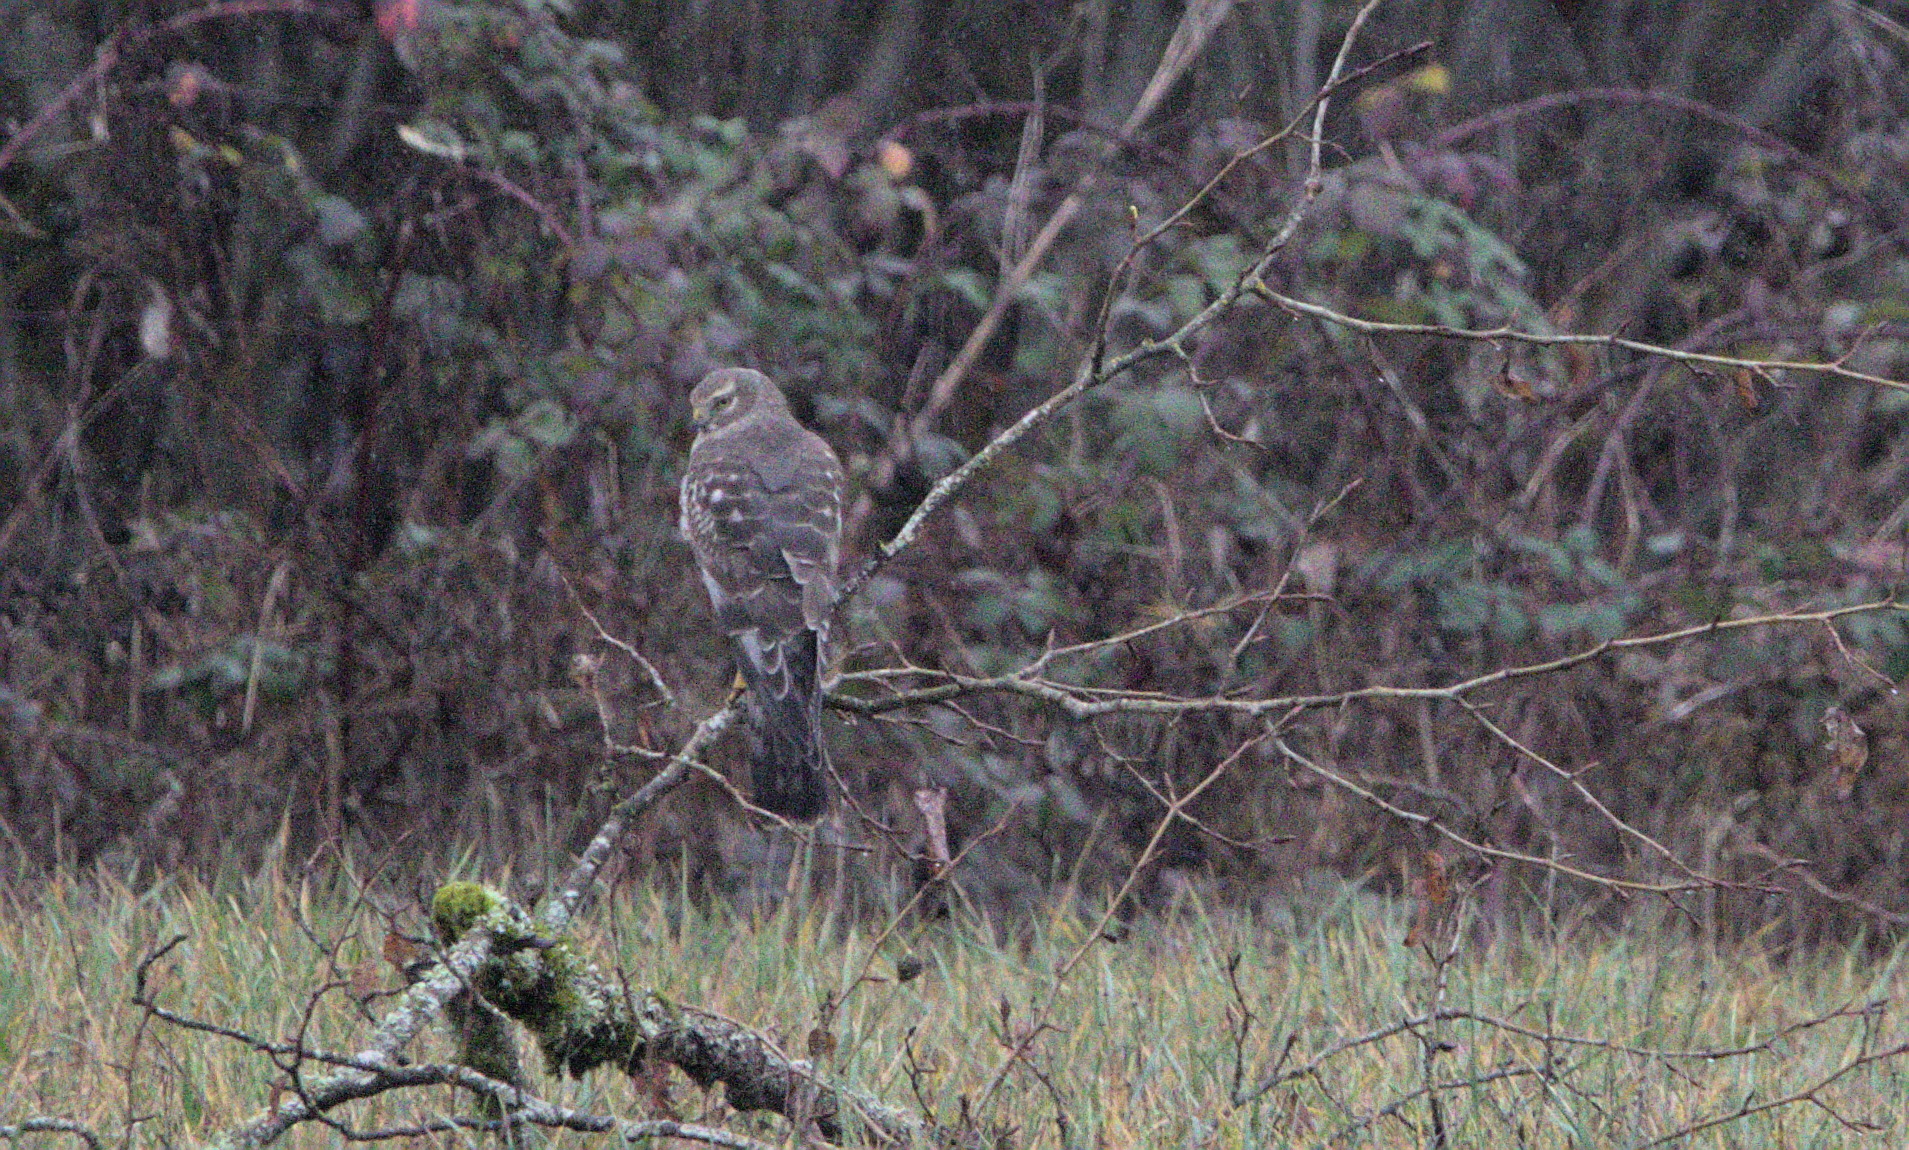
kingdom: Animalia
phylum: Chordata
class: Aves
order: Accipitriformes
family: Accipitridae
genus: Circus
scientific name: Circus cyaneus
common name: Hen harrier
